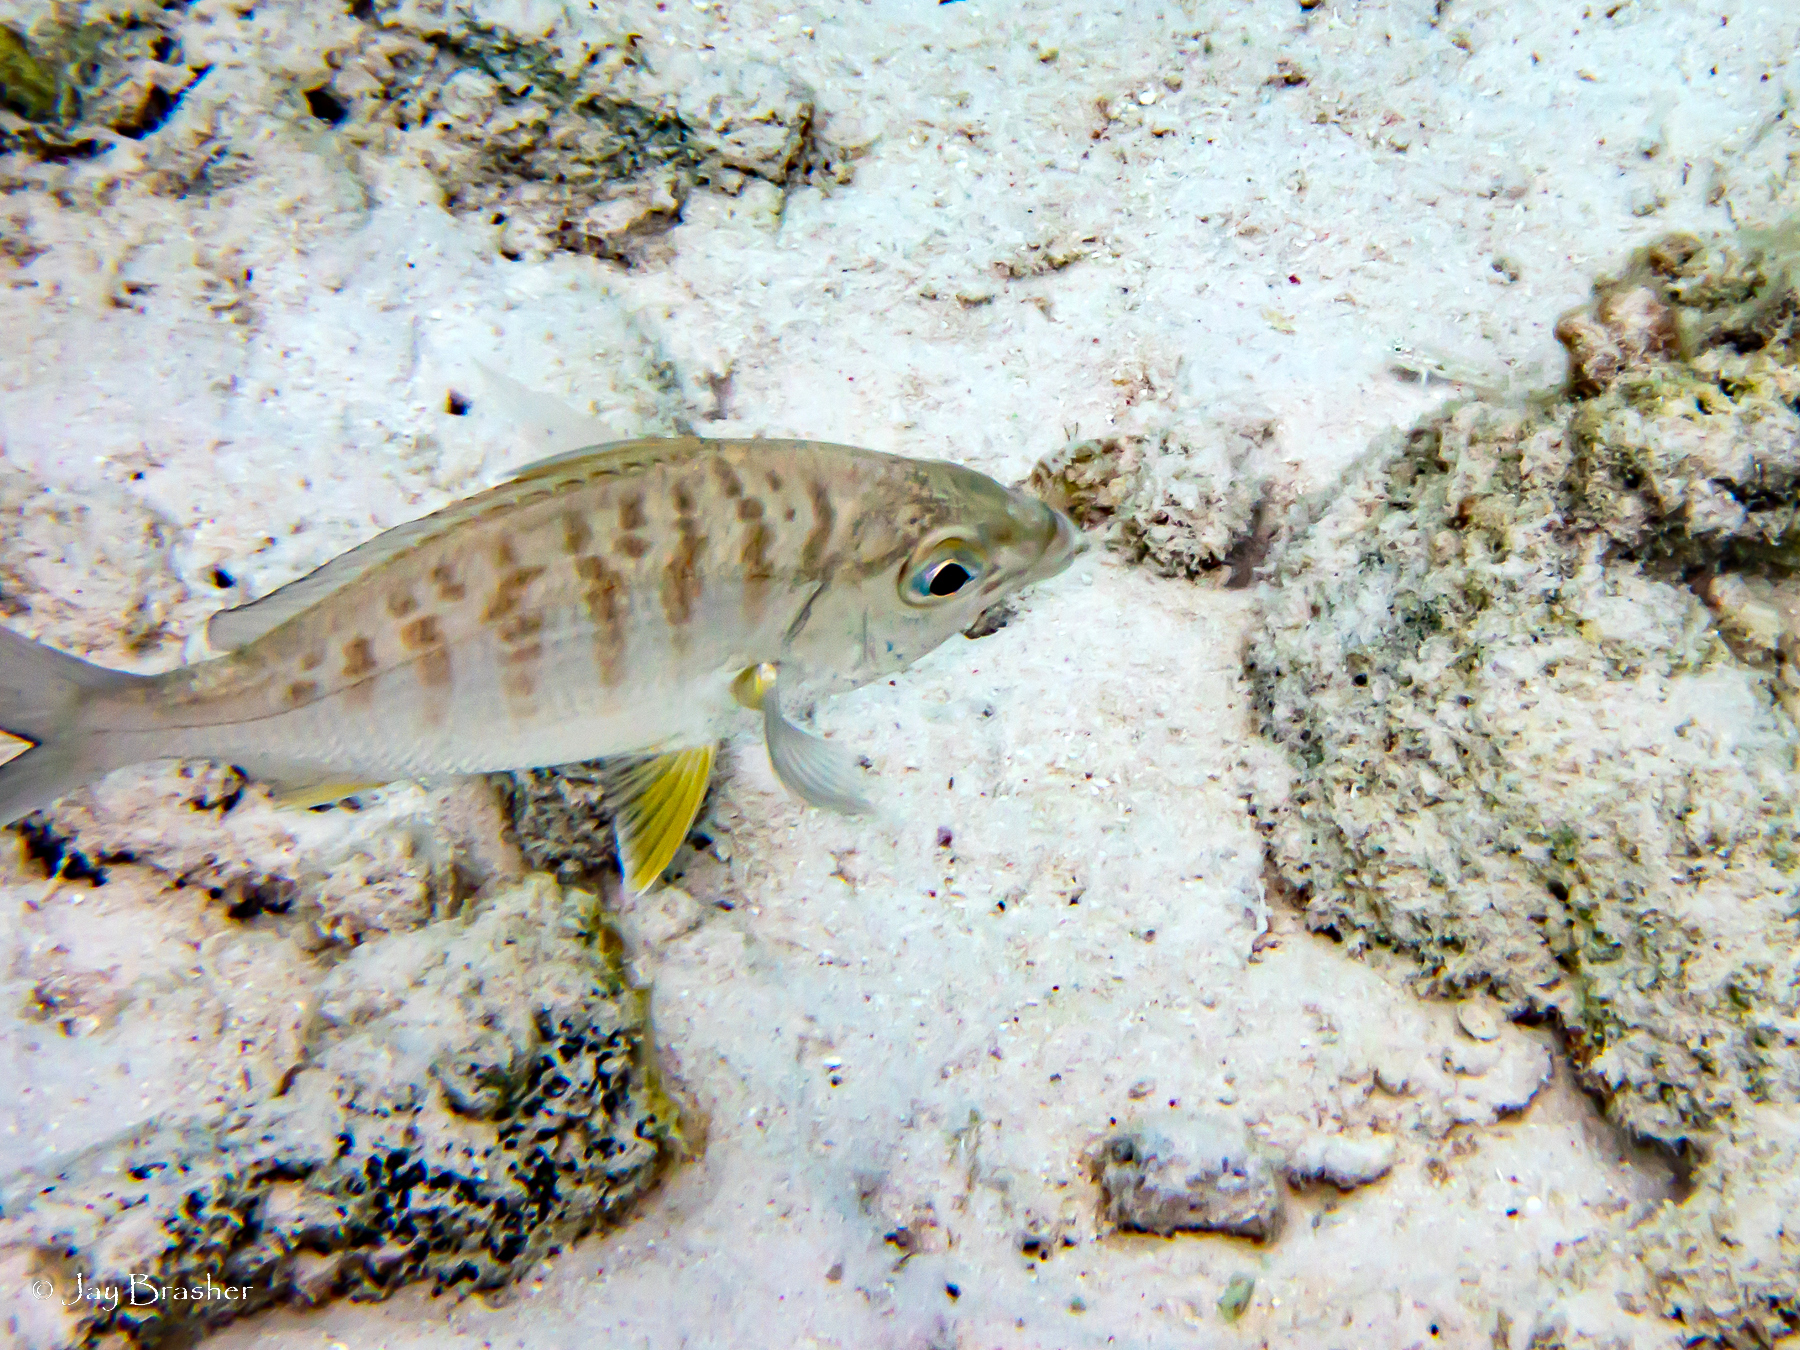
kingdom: Animalia
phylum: Chordata
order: Perciformes
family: Gerreidae
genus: Gerres
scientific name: Gerres cinereus
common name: Hedow
